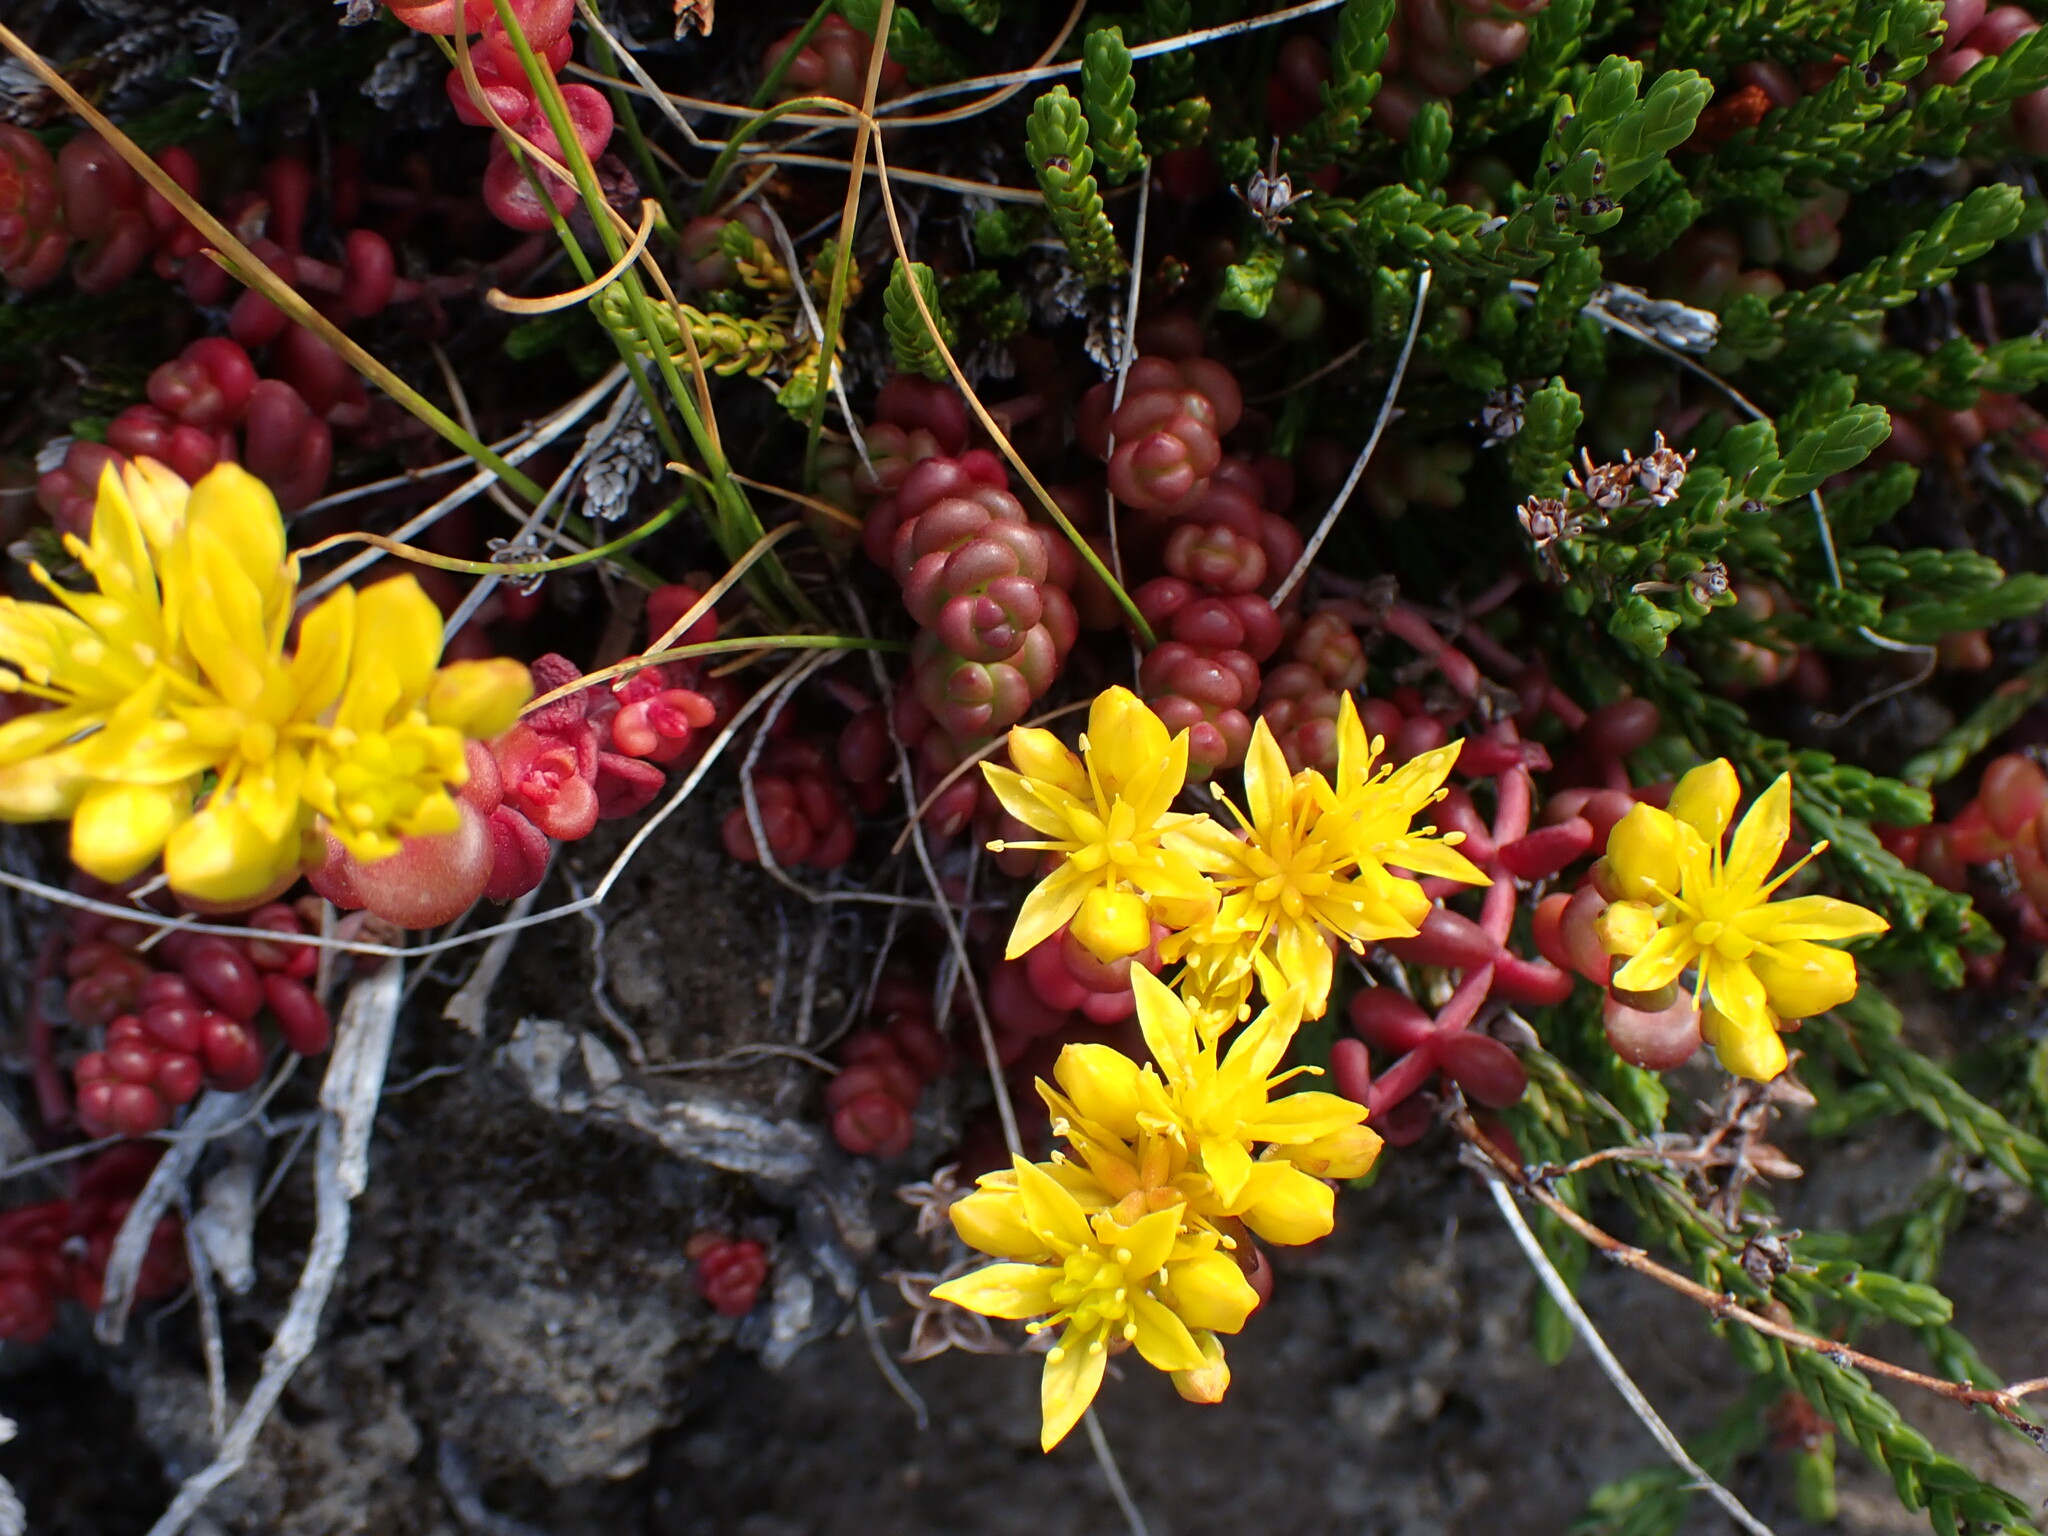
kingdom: Plantae
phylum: Tracheophyta
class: Magnoliopsida
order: Saxifragales
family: Crassulaceae
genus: Sedum
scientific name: Sedum divergens
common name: Cascade stonecrop
